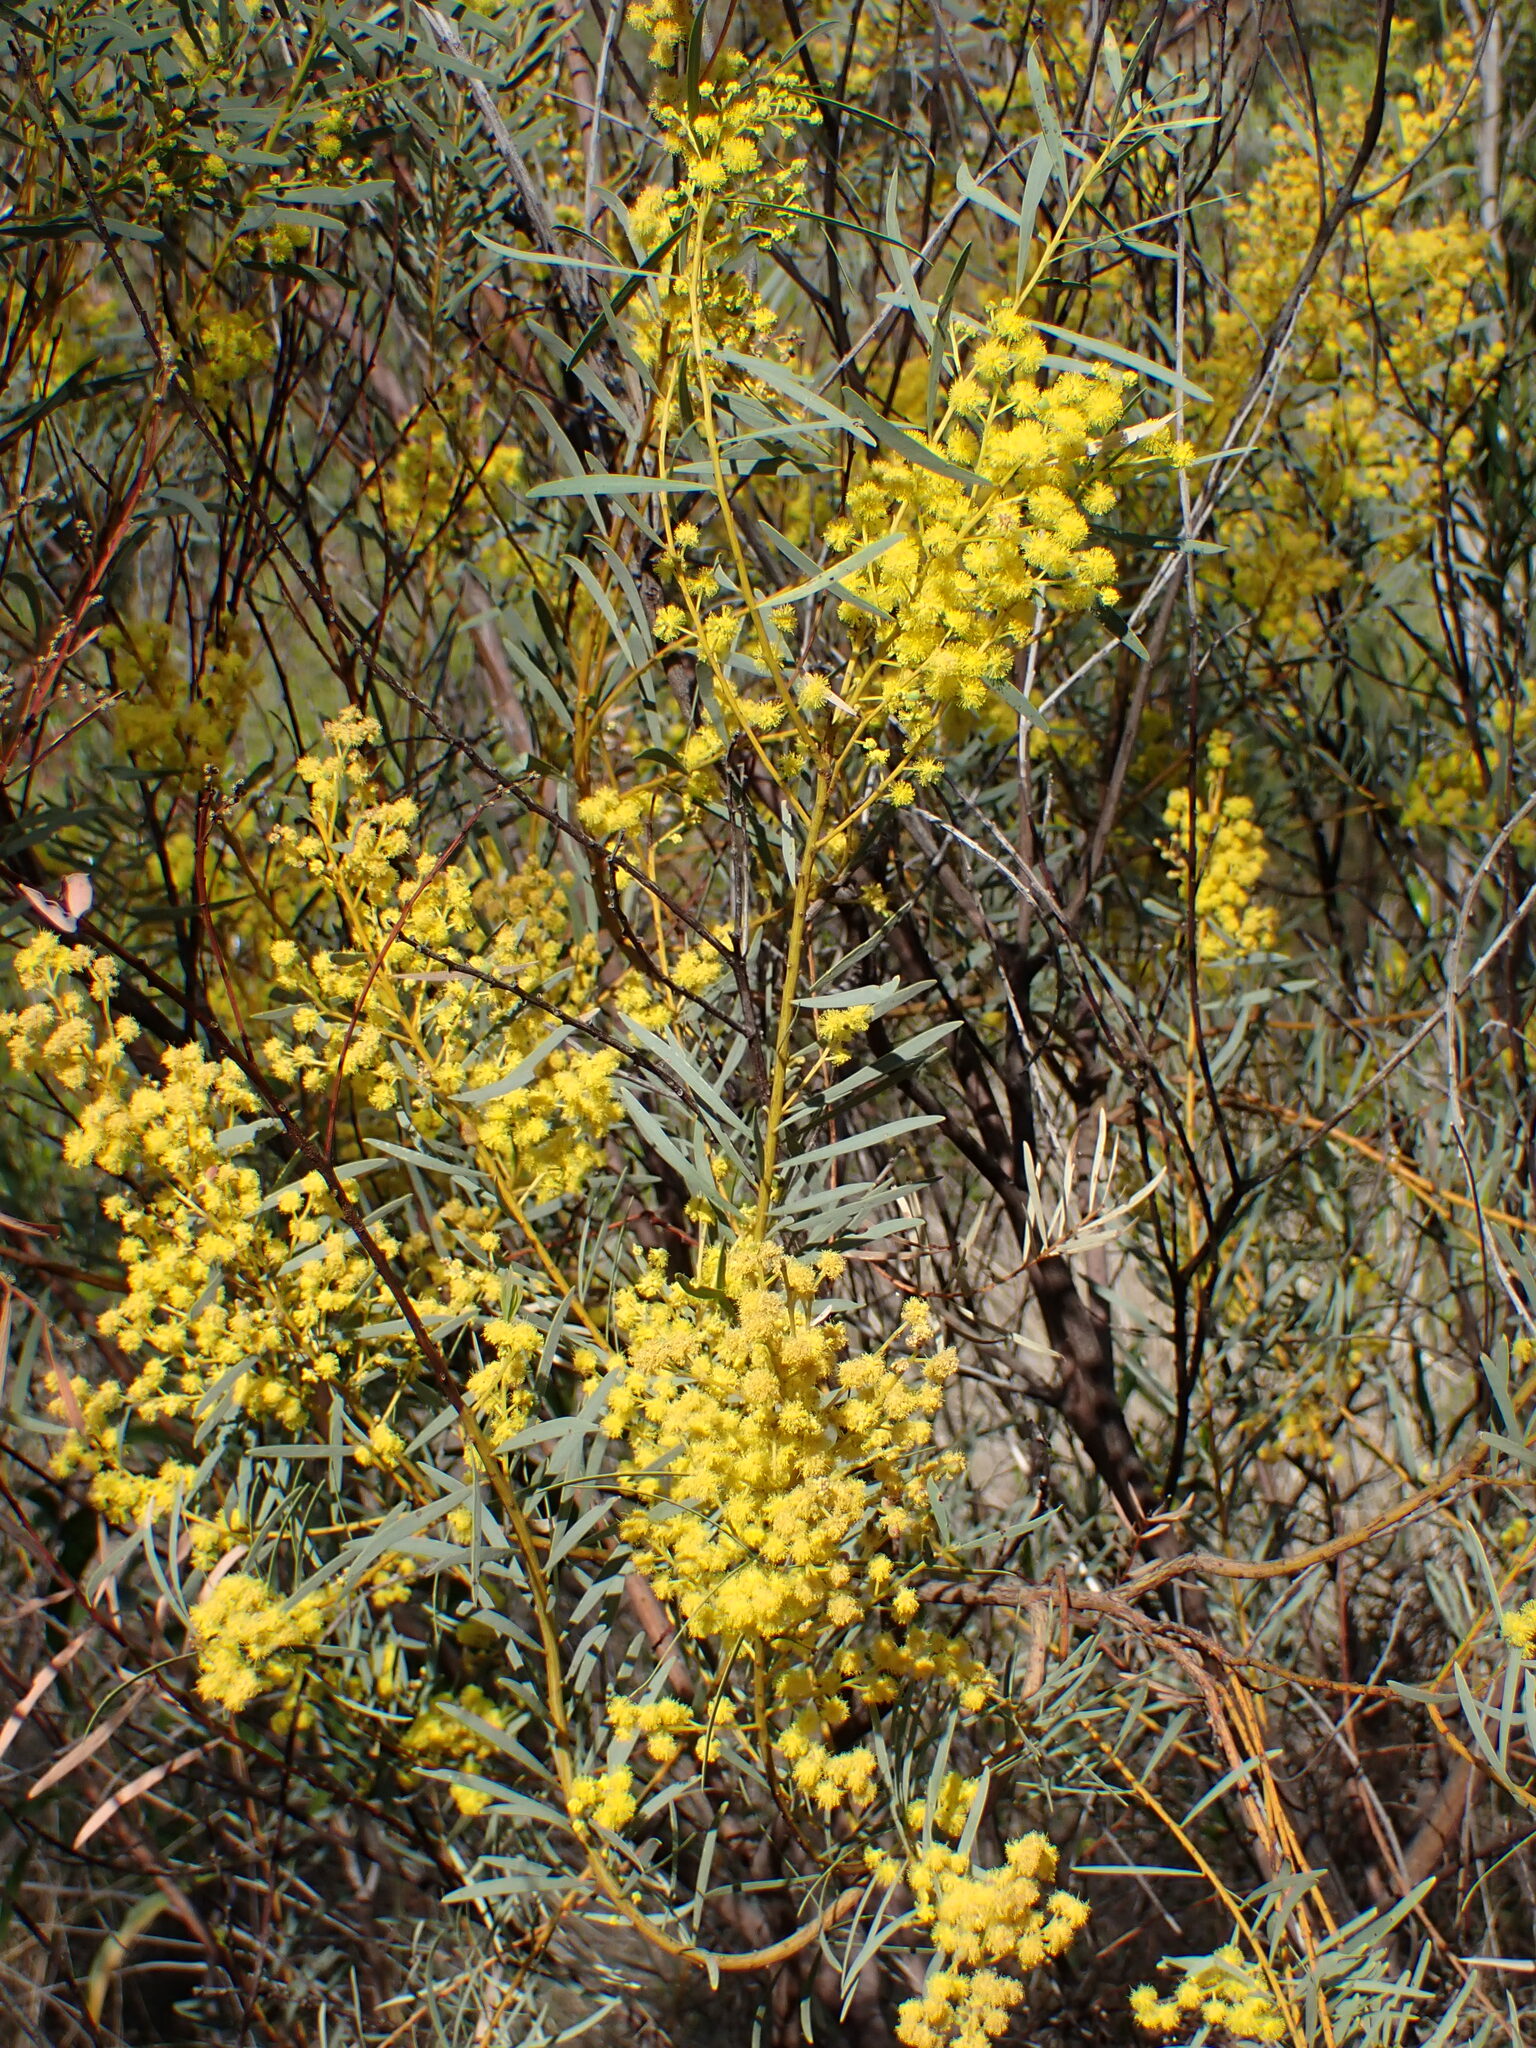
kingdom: Plantae
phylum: Tracheophyta
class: Magnoliopsida
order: Fabales
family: Fabaceae
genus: Acacia
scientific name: Acacia decora
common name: Showy wattle
